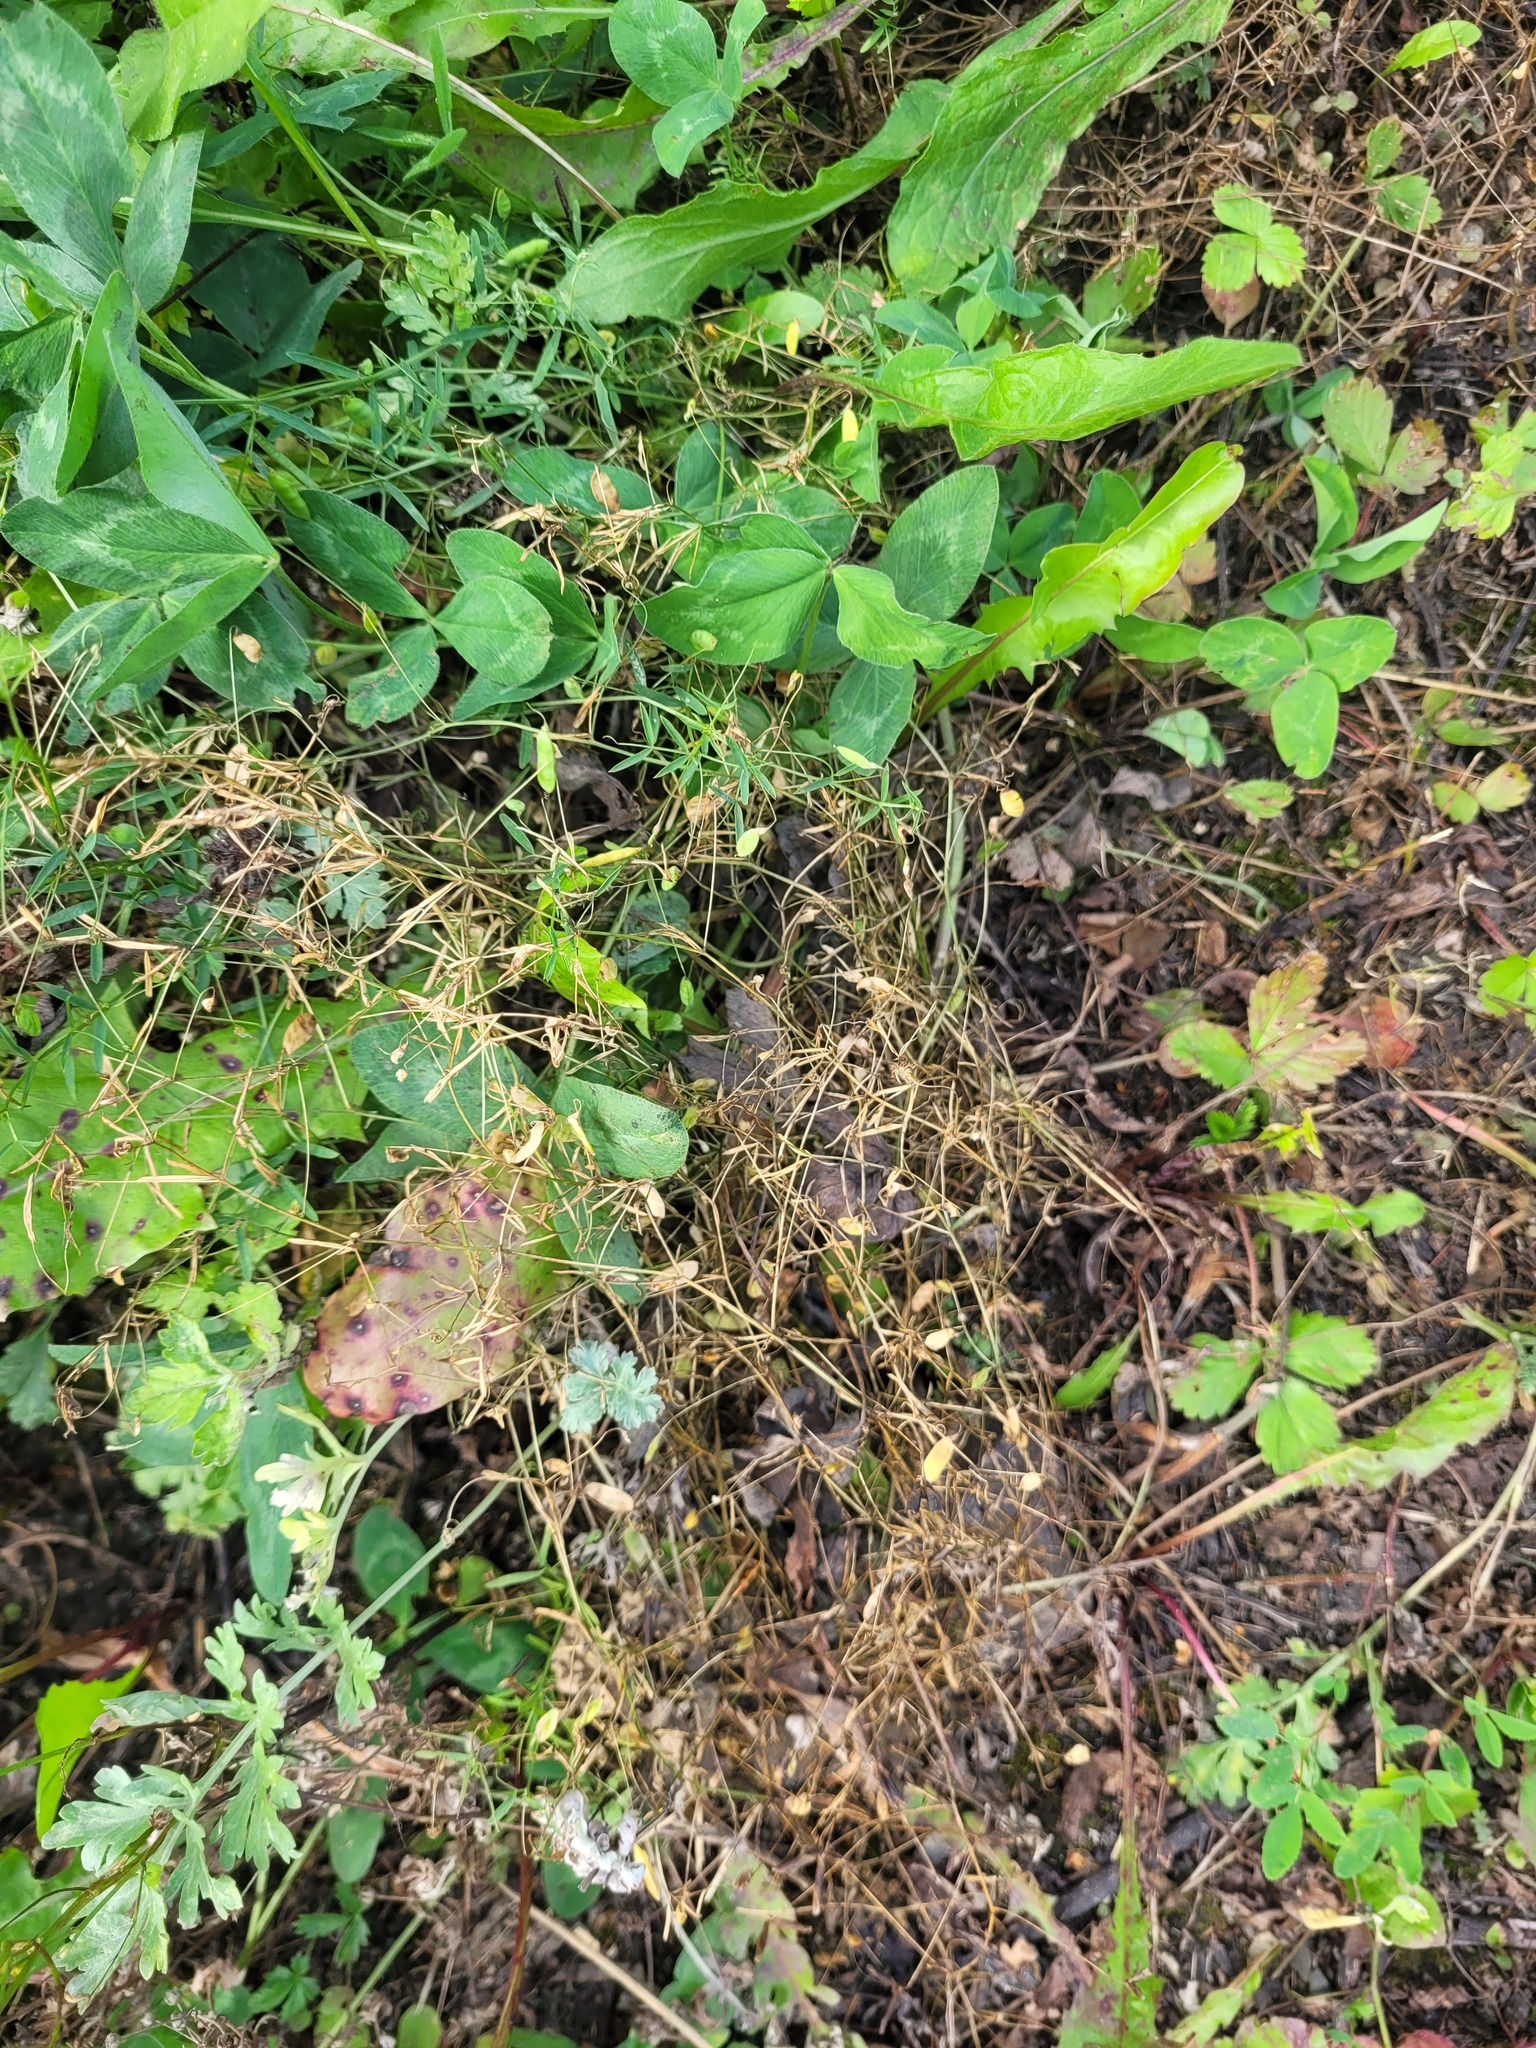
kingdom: Plantae
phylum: Tracheophyta
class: Magnoliopsida
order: Fabales
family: Fabaceae
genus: Vicia
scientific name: Vicia tetrasperma
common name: Smooth tare
